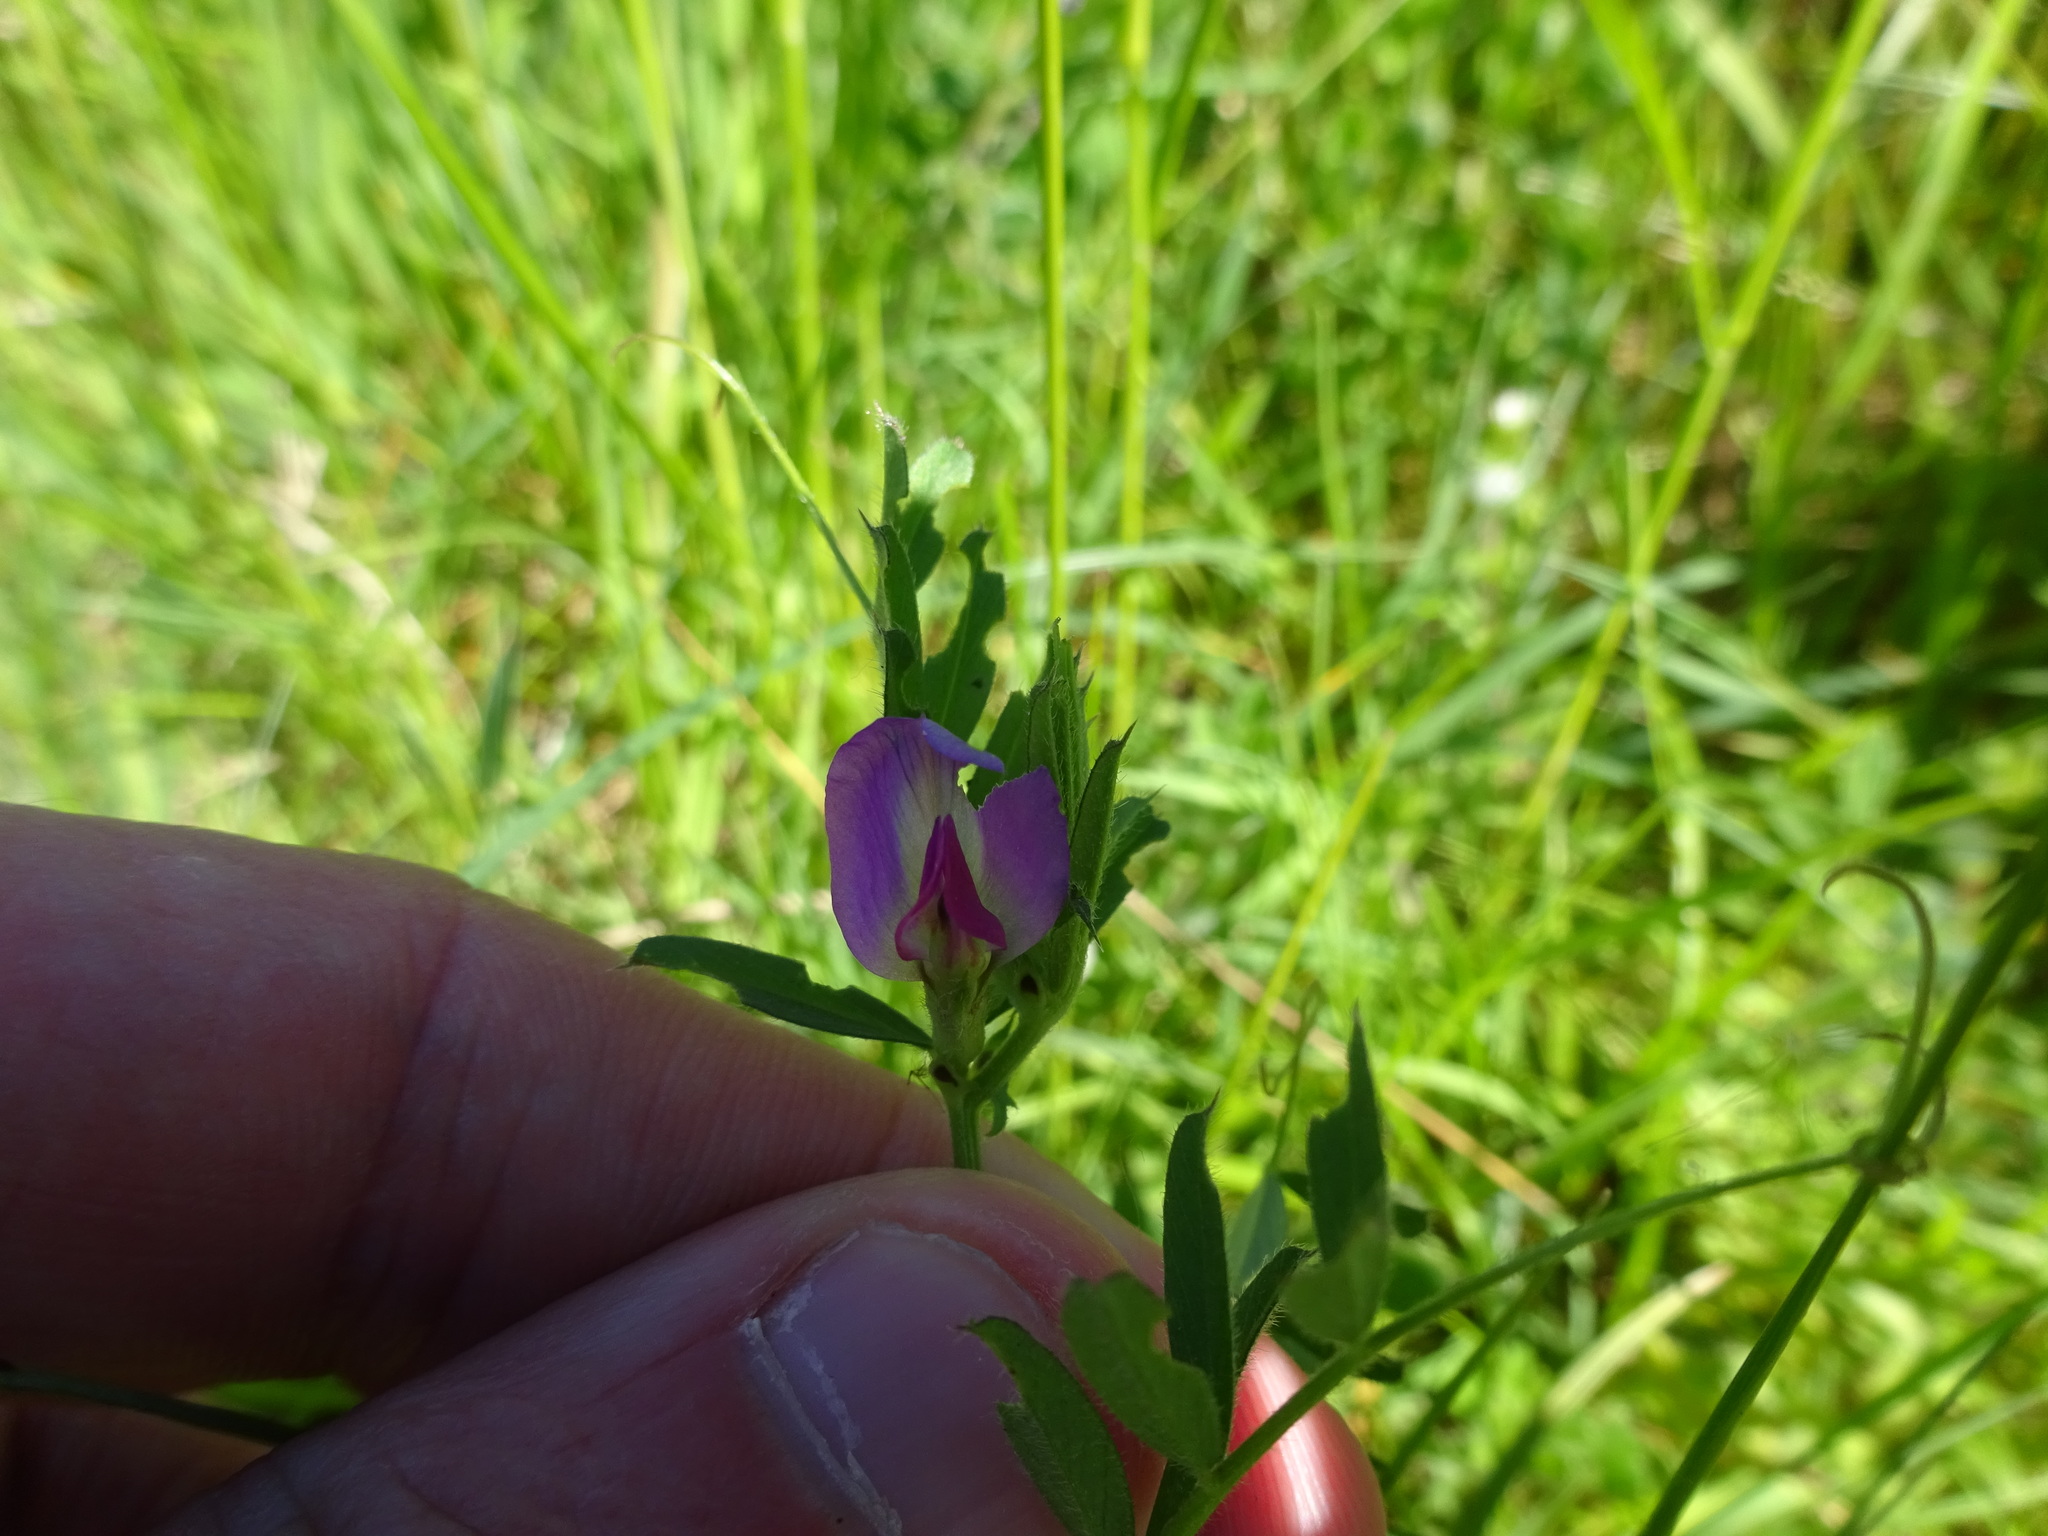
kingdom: Plantae
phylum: Tracheophyta
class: Magnoliopsida
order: Fabales
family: Fabaceae
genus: Vicia
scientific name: Vicia sativa
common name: Garden vetch
